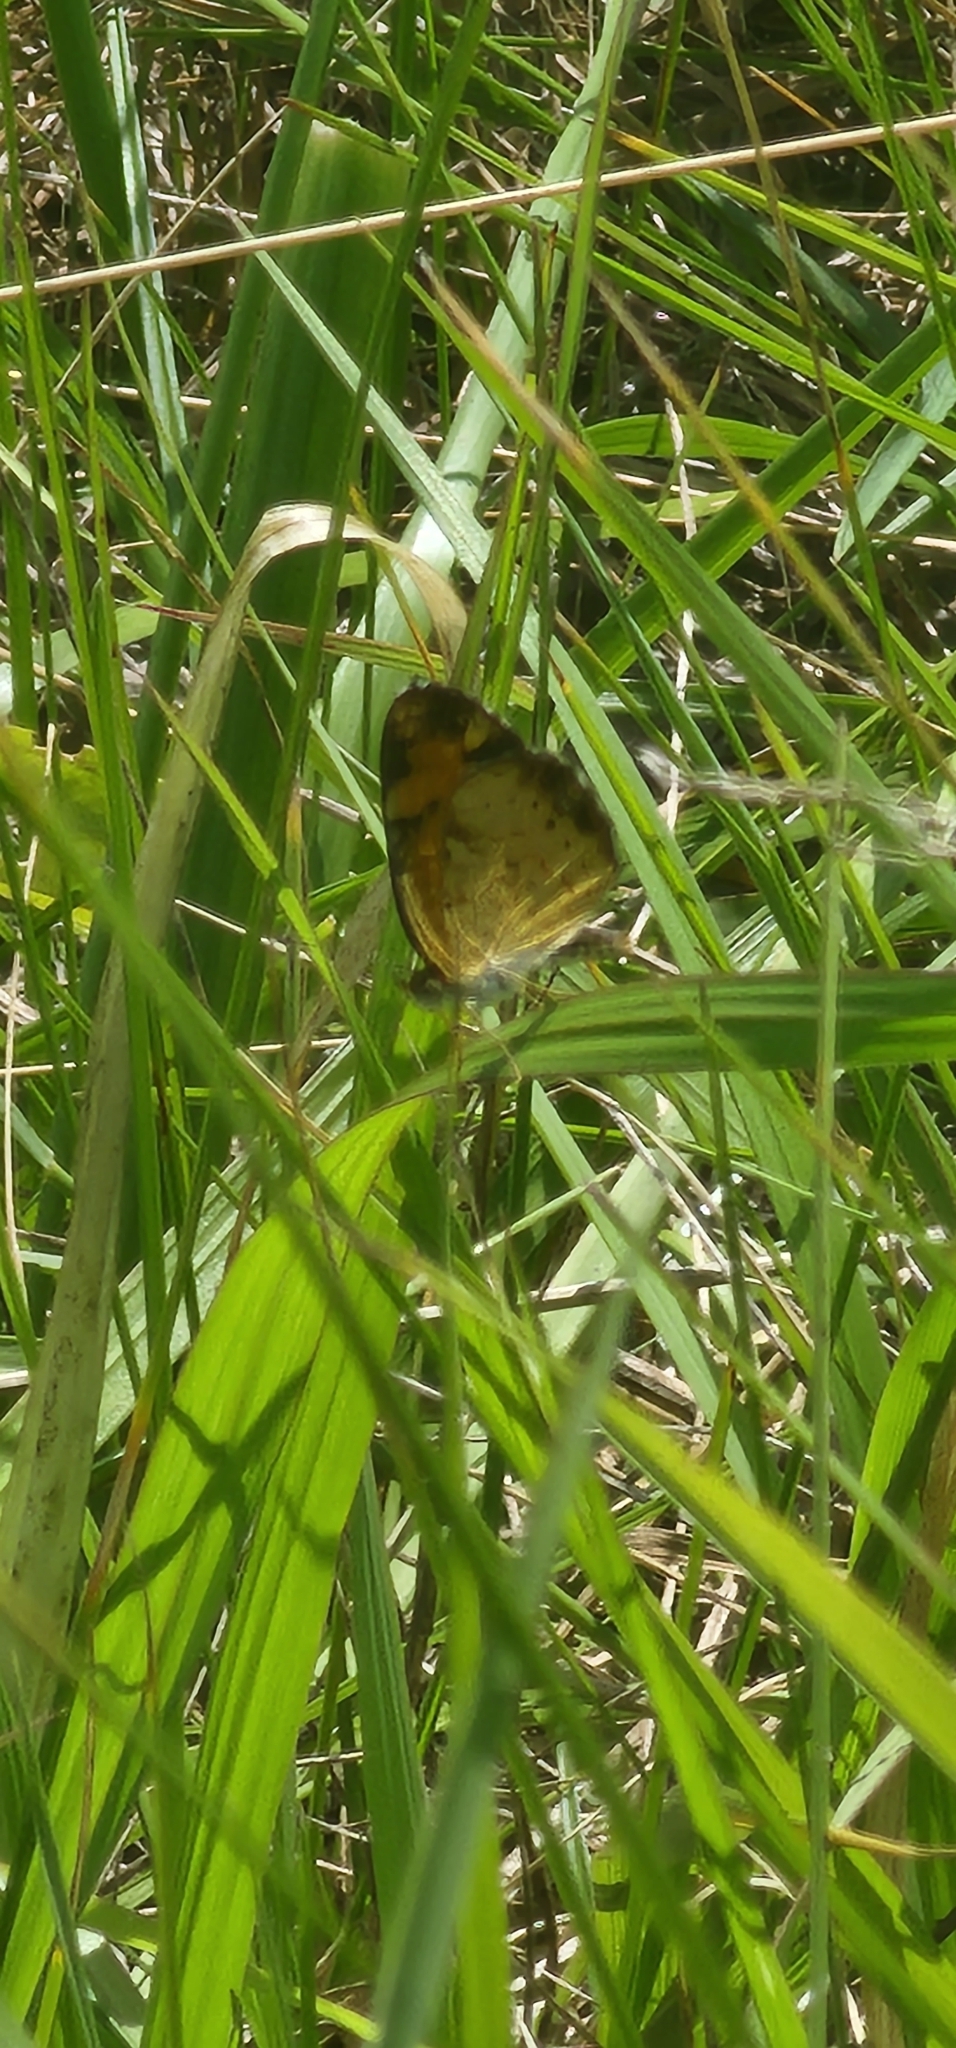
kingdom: Animalia
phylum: Arthropoda
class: Insecta
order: Lepidoptera
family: Nymphalidae
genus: Phyciodes
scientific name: Phyciodes tharos
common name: Pearl crescent
